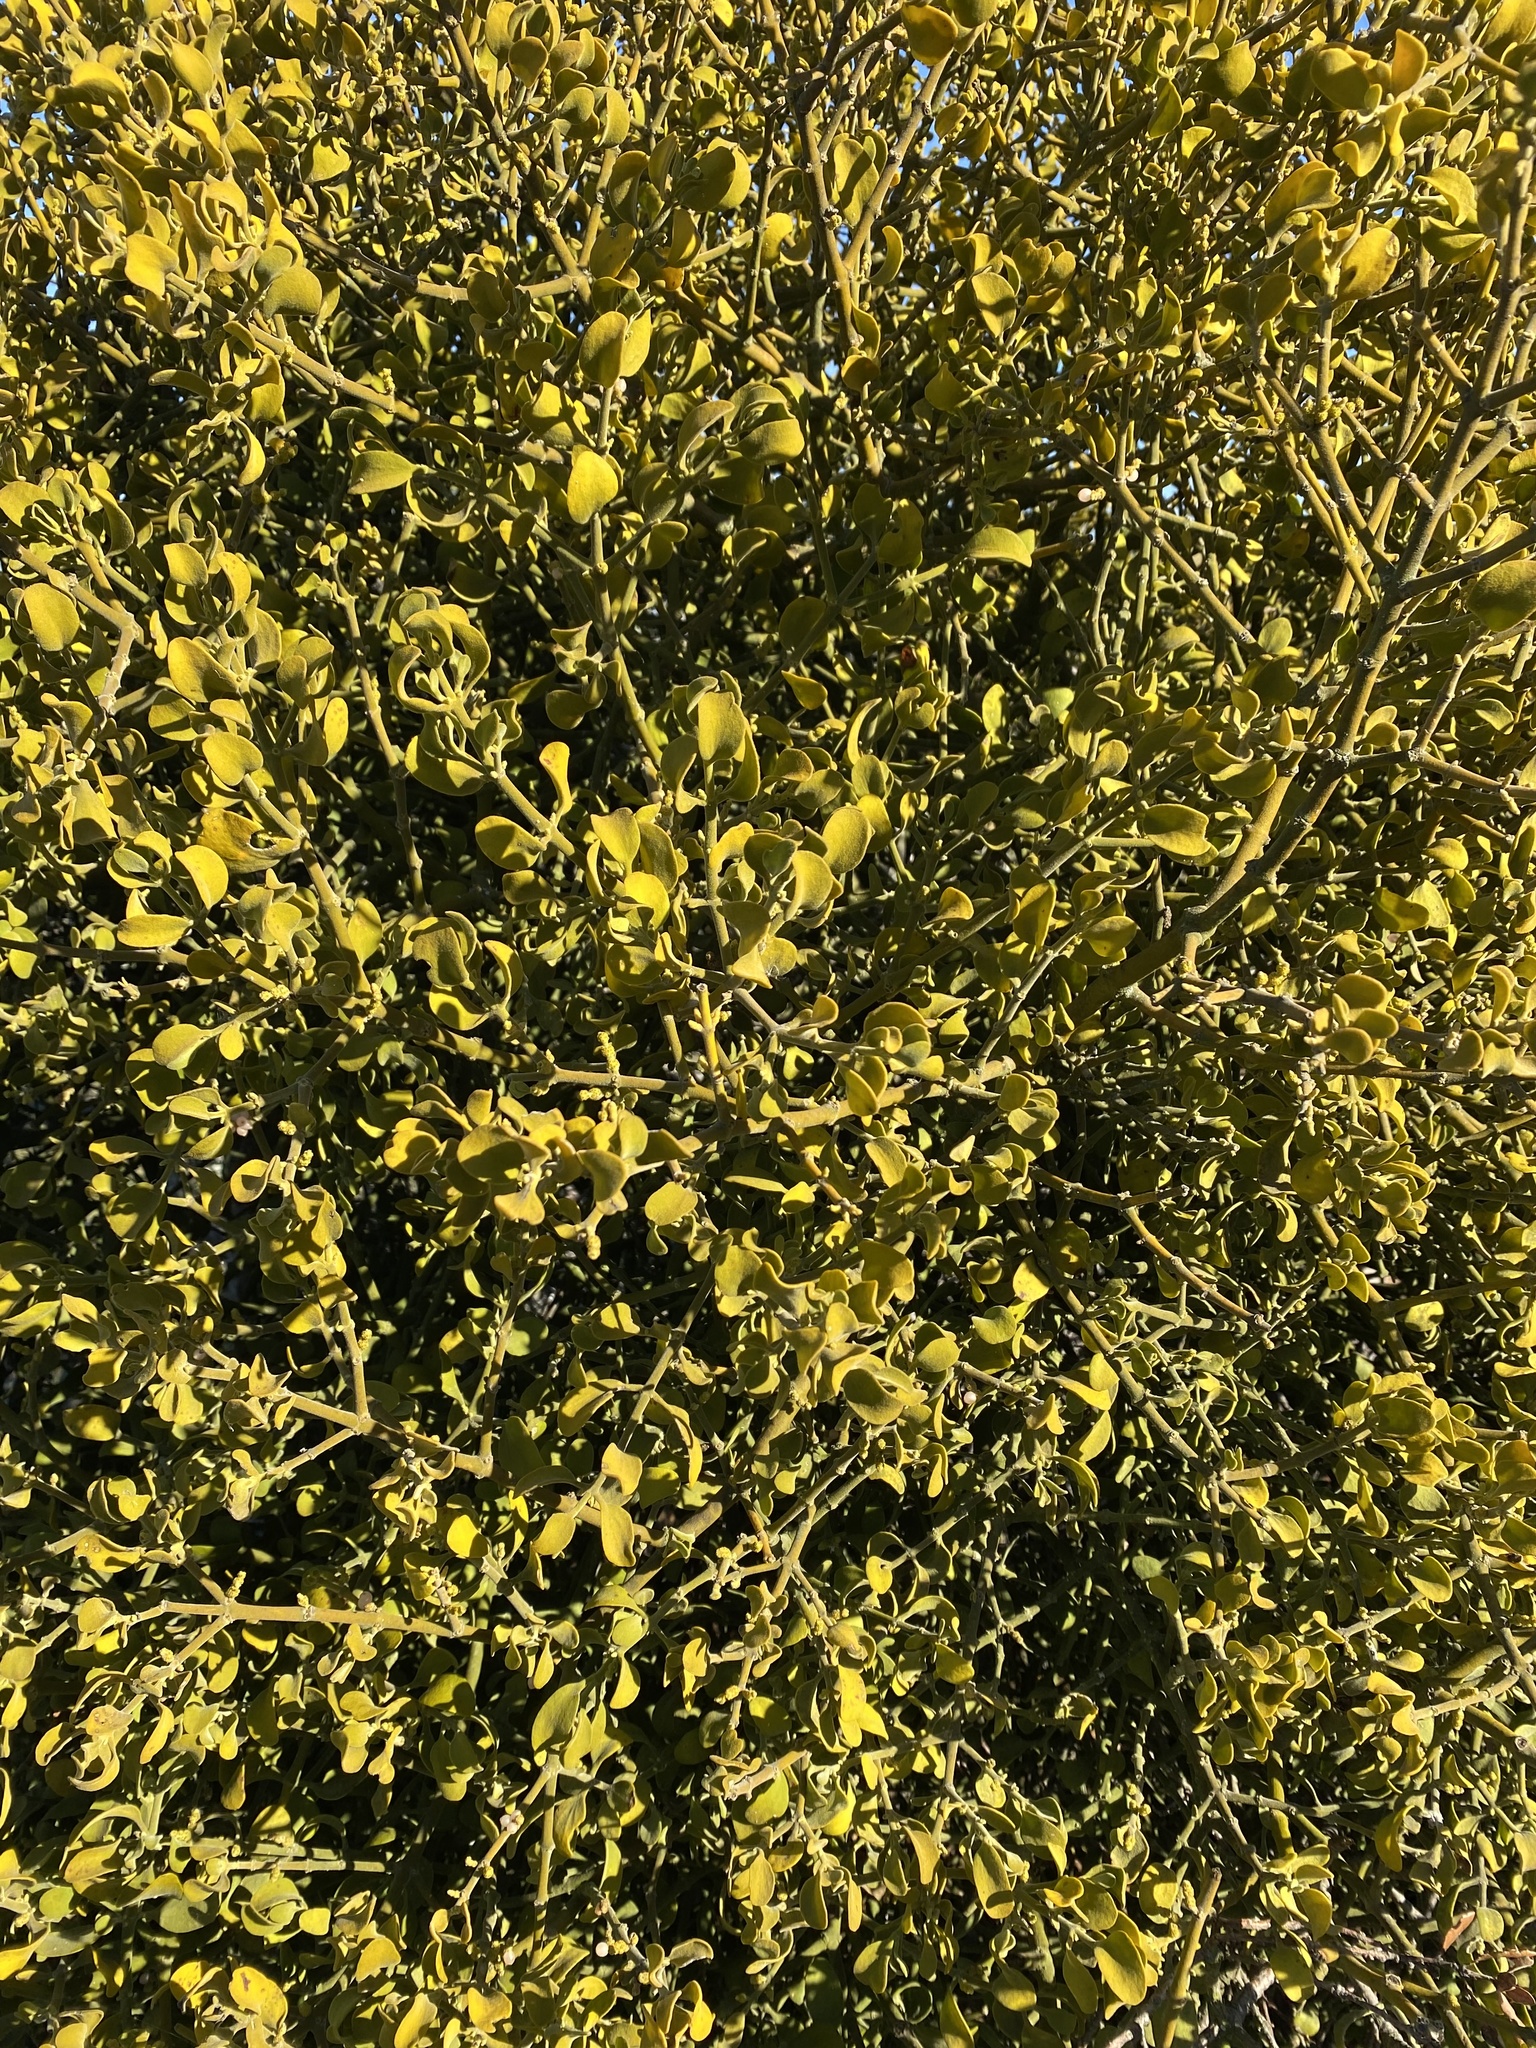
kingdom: Plantae
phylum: Tracheophyta
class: Magnoliopsida
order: Santalales
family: Viscaceae
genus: Phoradendron
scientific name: Phoradendron leucarpum
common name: Pacific mistletoe
